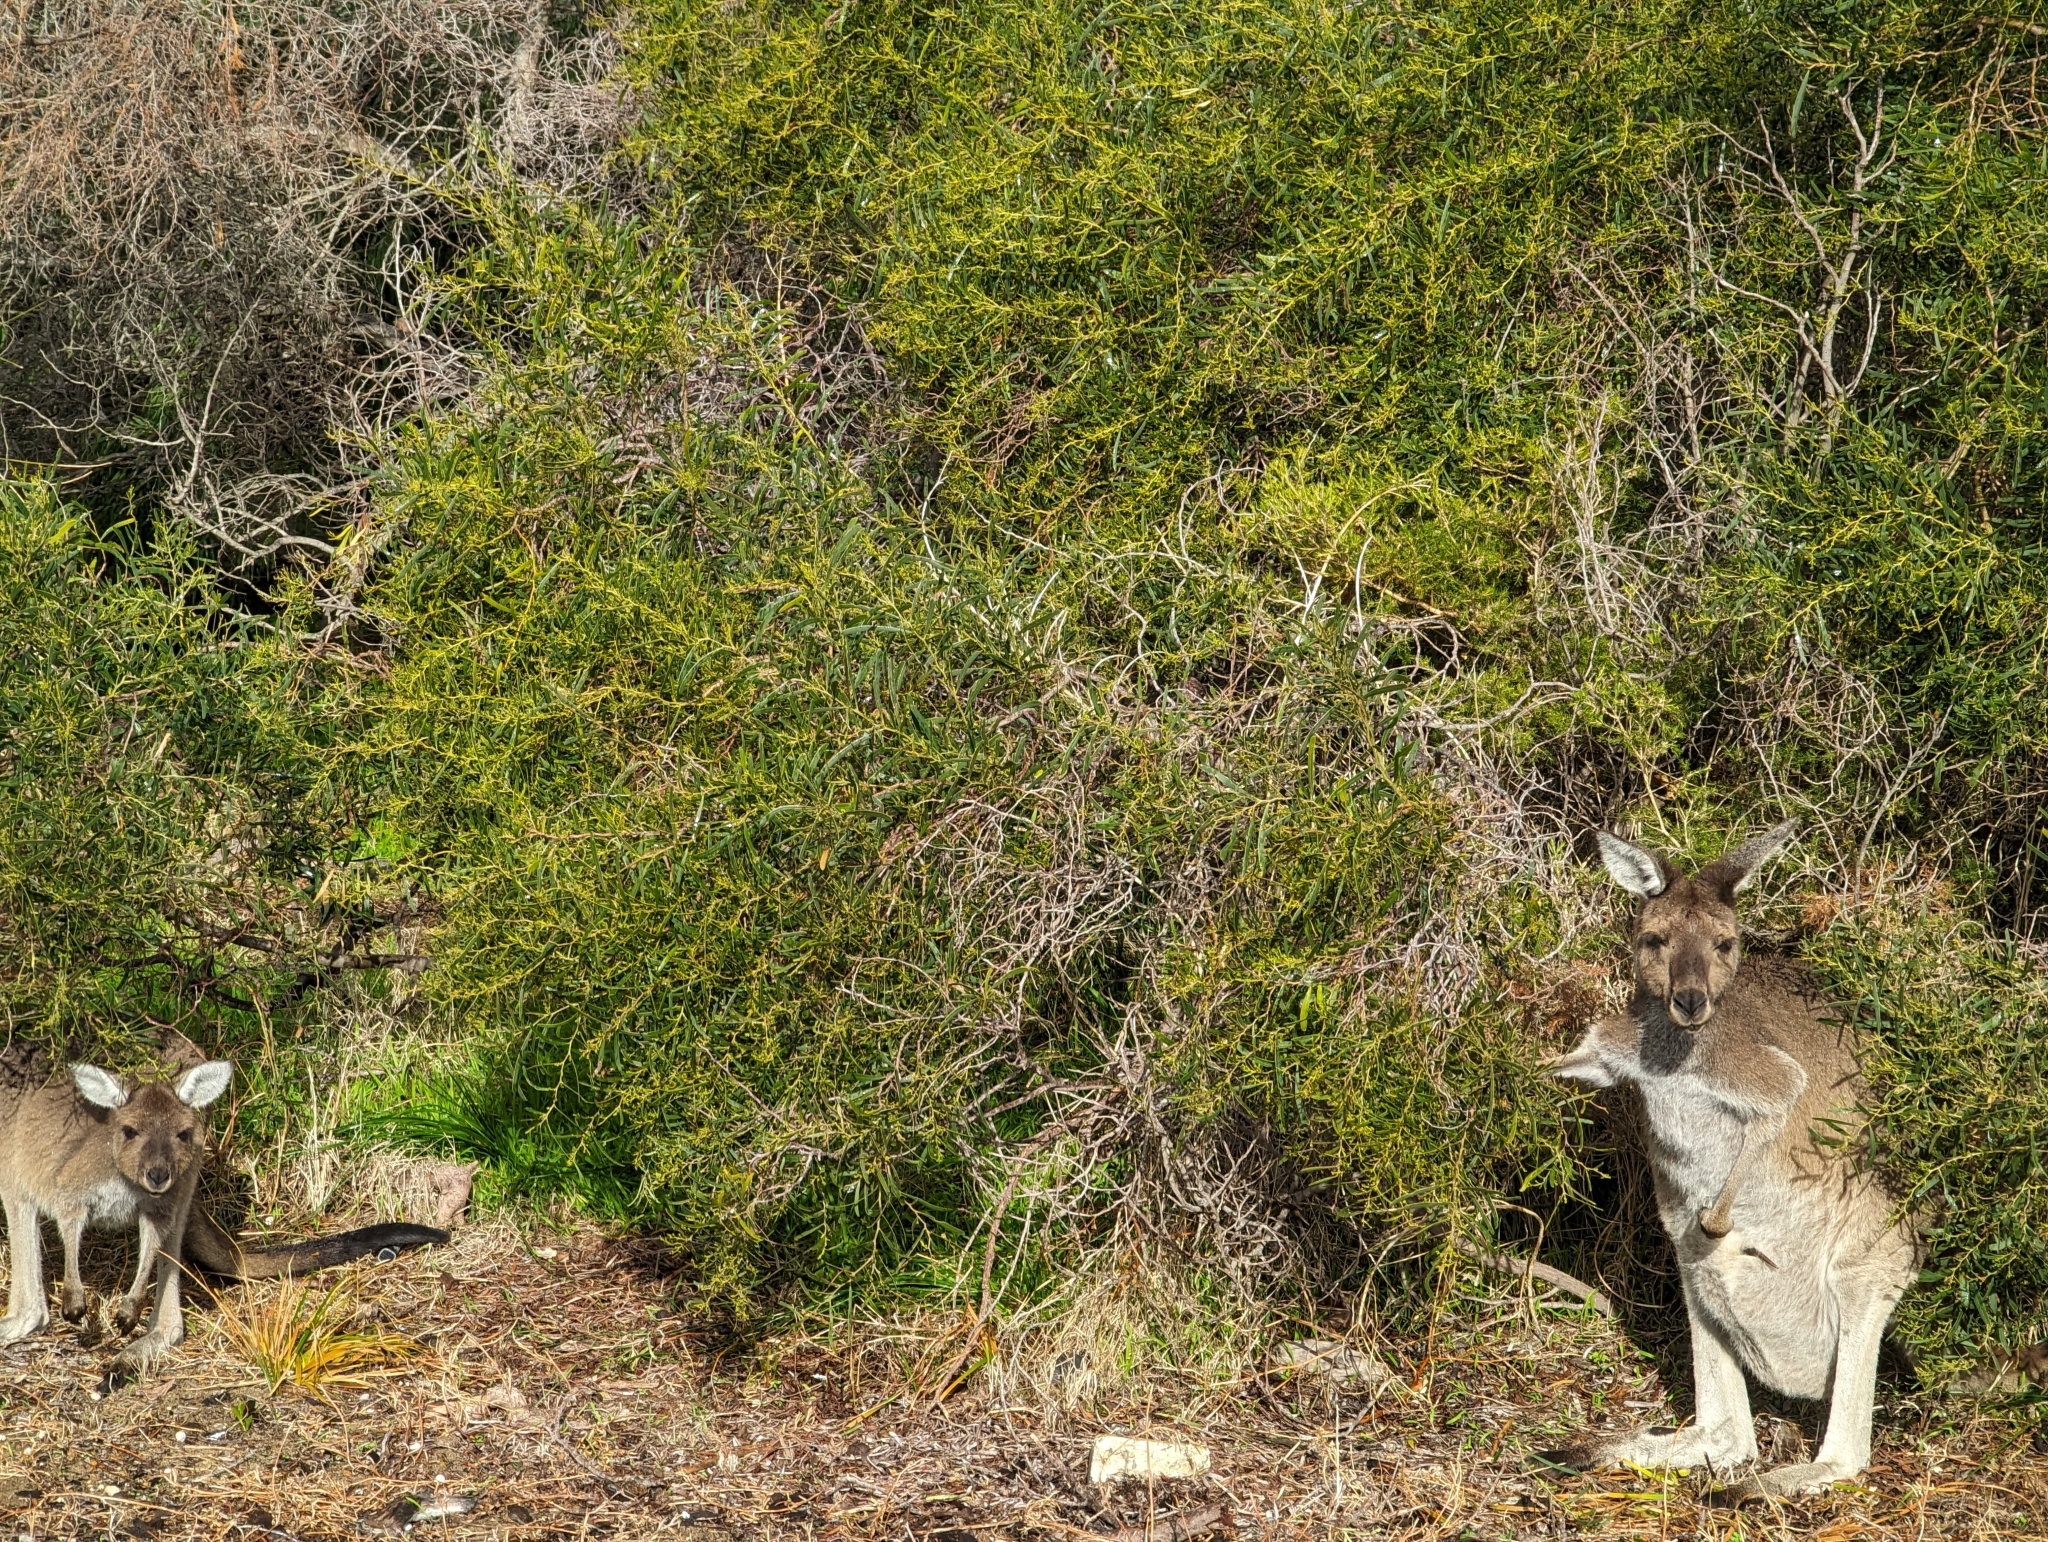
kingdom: Animalia
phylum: Chordata
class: Mammalia
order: Diprotodontia
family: Macropodidae
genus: Macropus
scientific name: Macropus fuliginosus
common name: Western grey kangaroo
